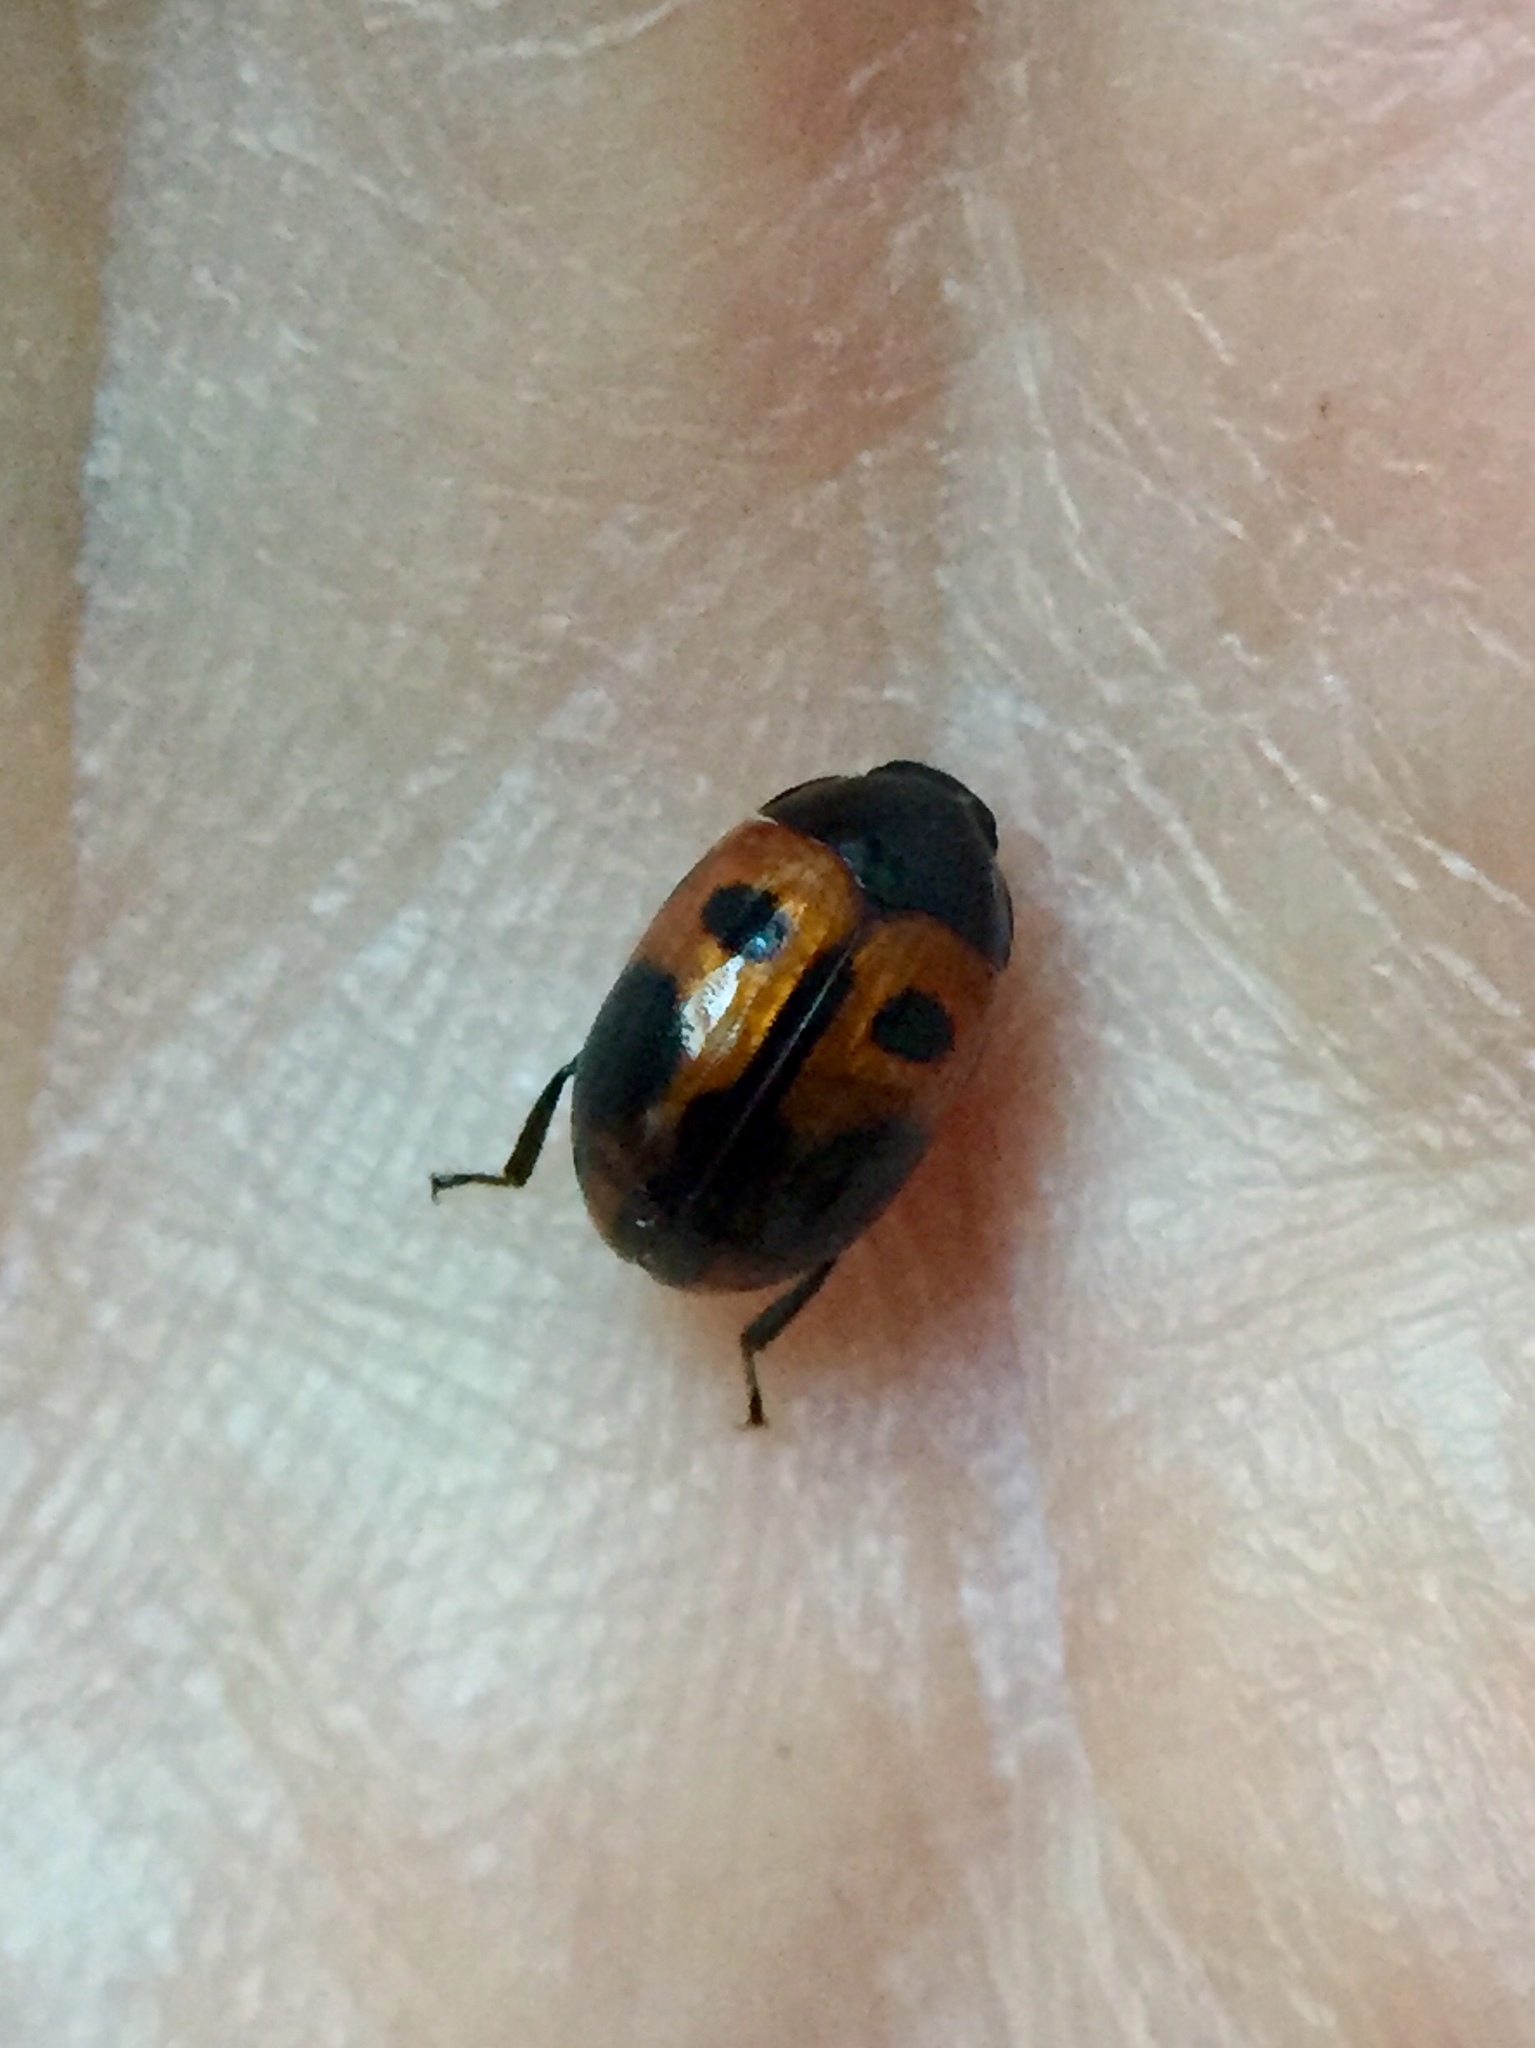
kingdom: Animalia
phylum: Arthropoda
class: Insecta
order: Coleoptera
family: Tenebrionidae
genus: Diaperis
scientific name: Diaperis maculata
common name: Darkling beetle
